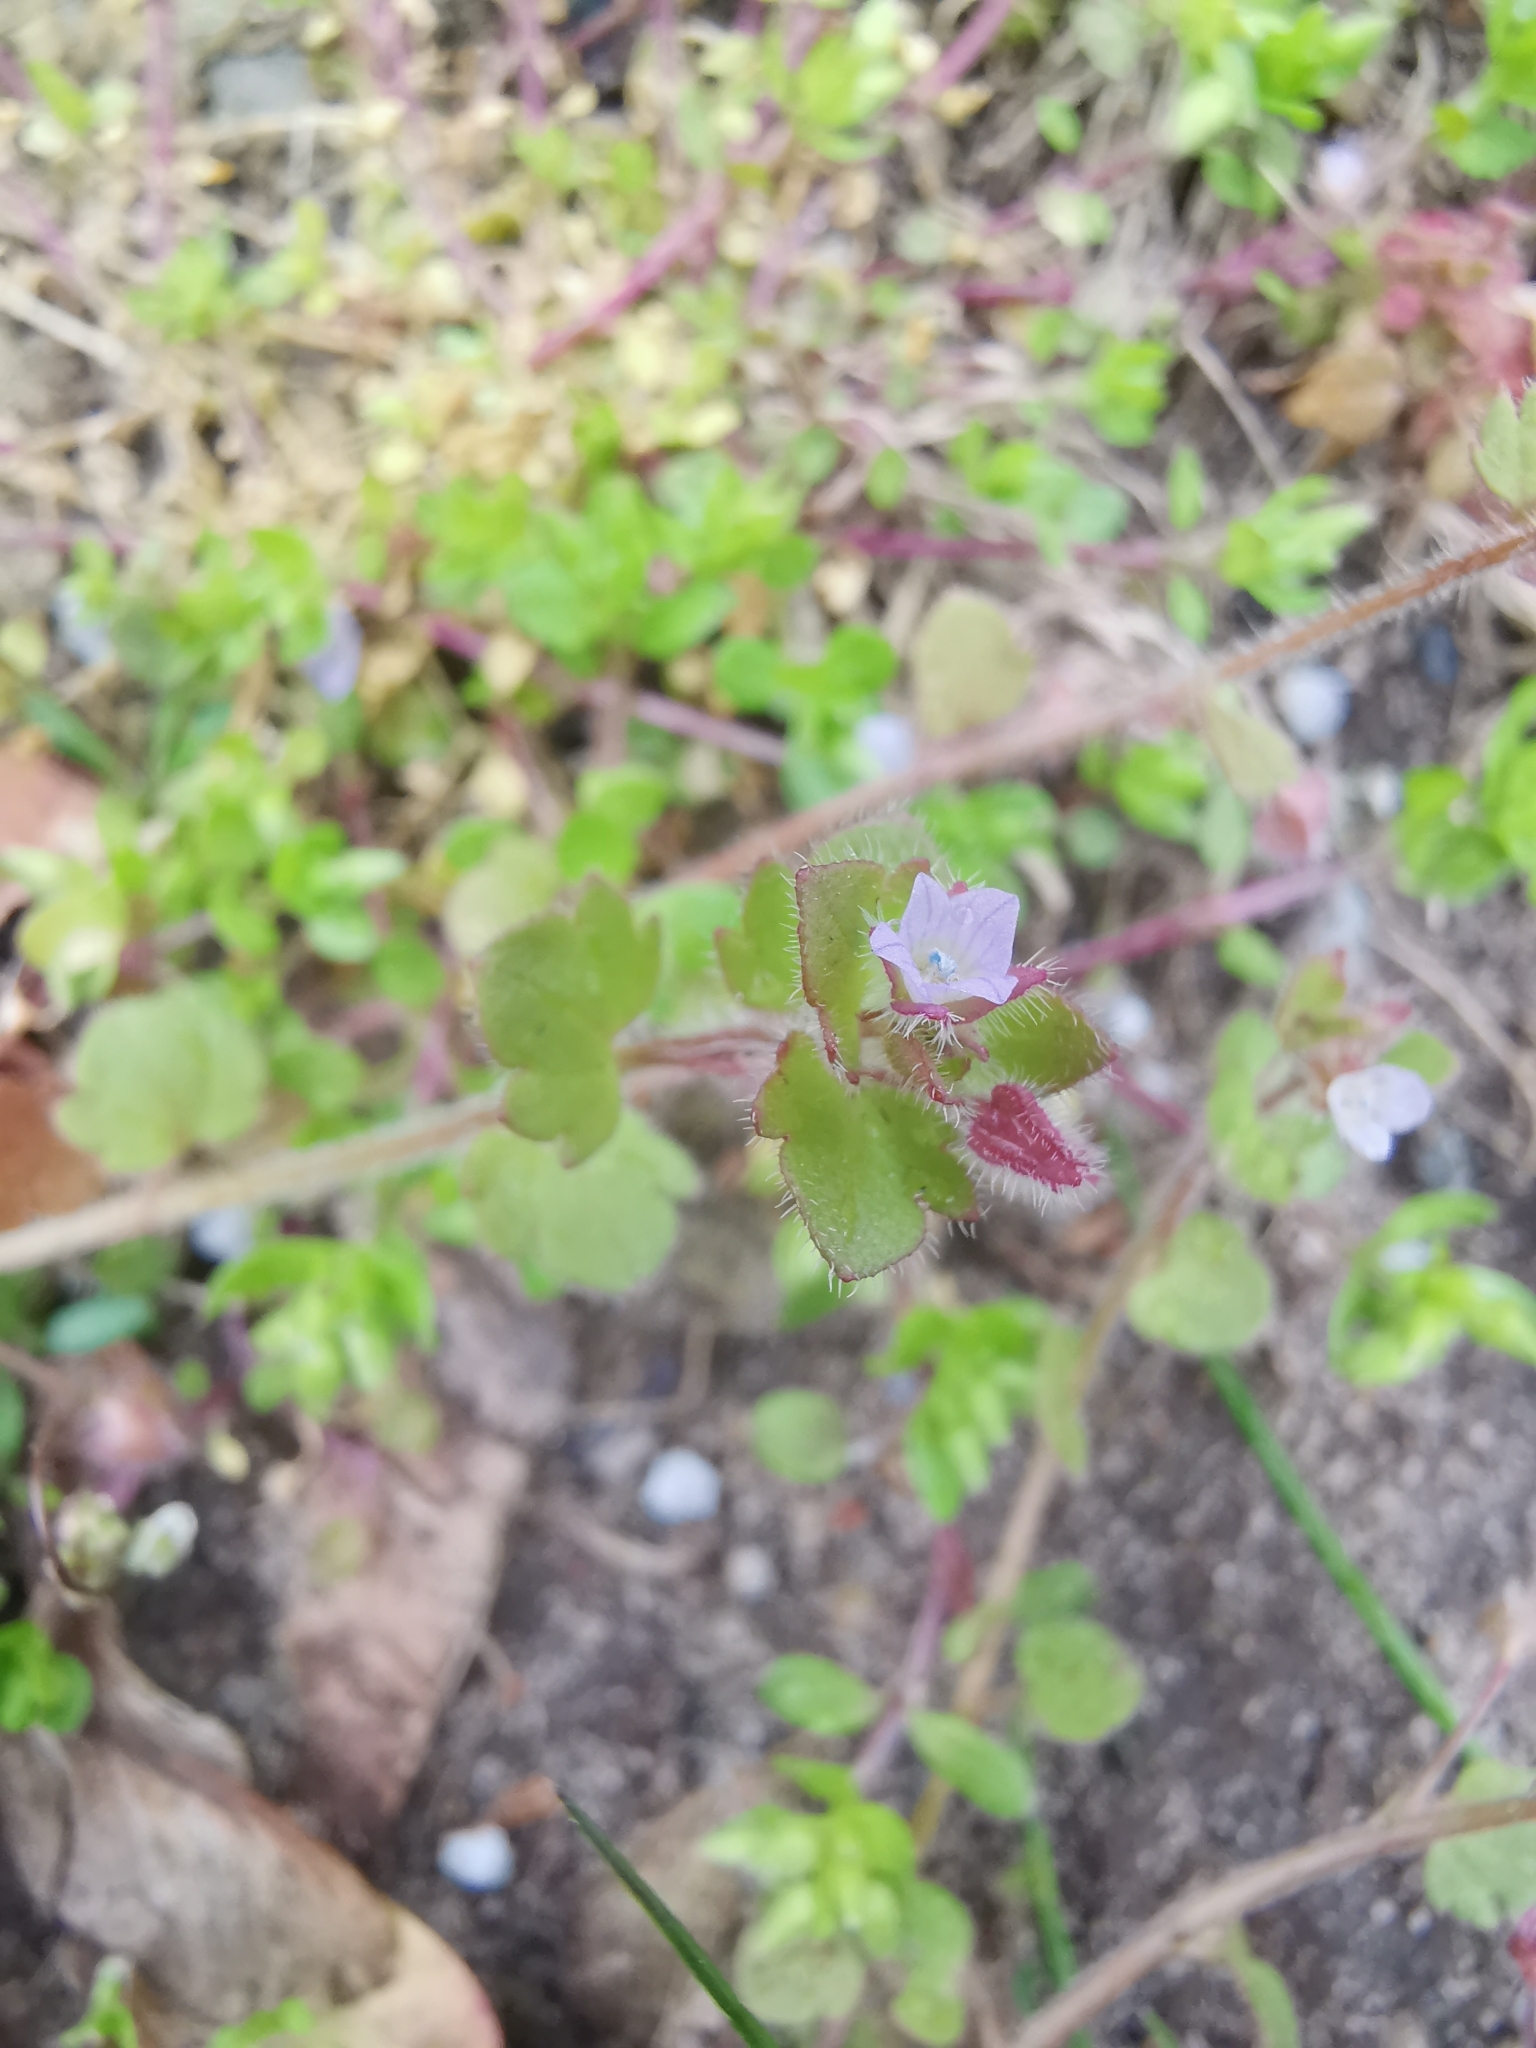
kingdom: Plantae
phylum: Tracheophyta
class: Magnoliopsida
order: Lamiales
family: Plantaginaceae
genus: Veronica
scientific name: Veronica sublobata
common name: False ivy-leaved speedwell
